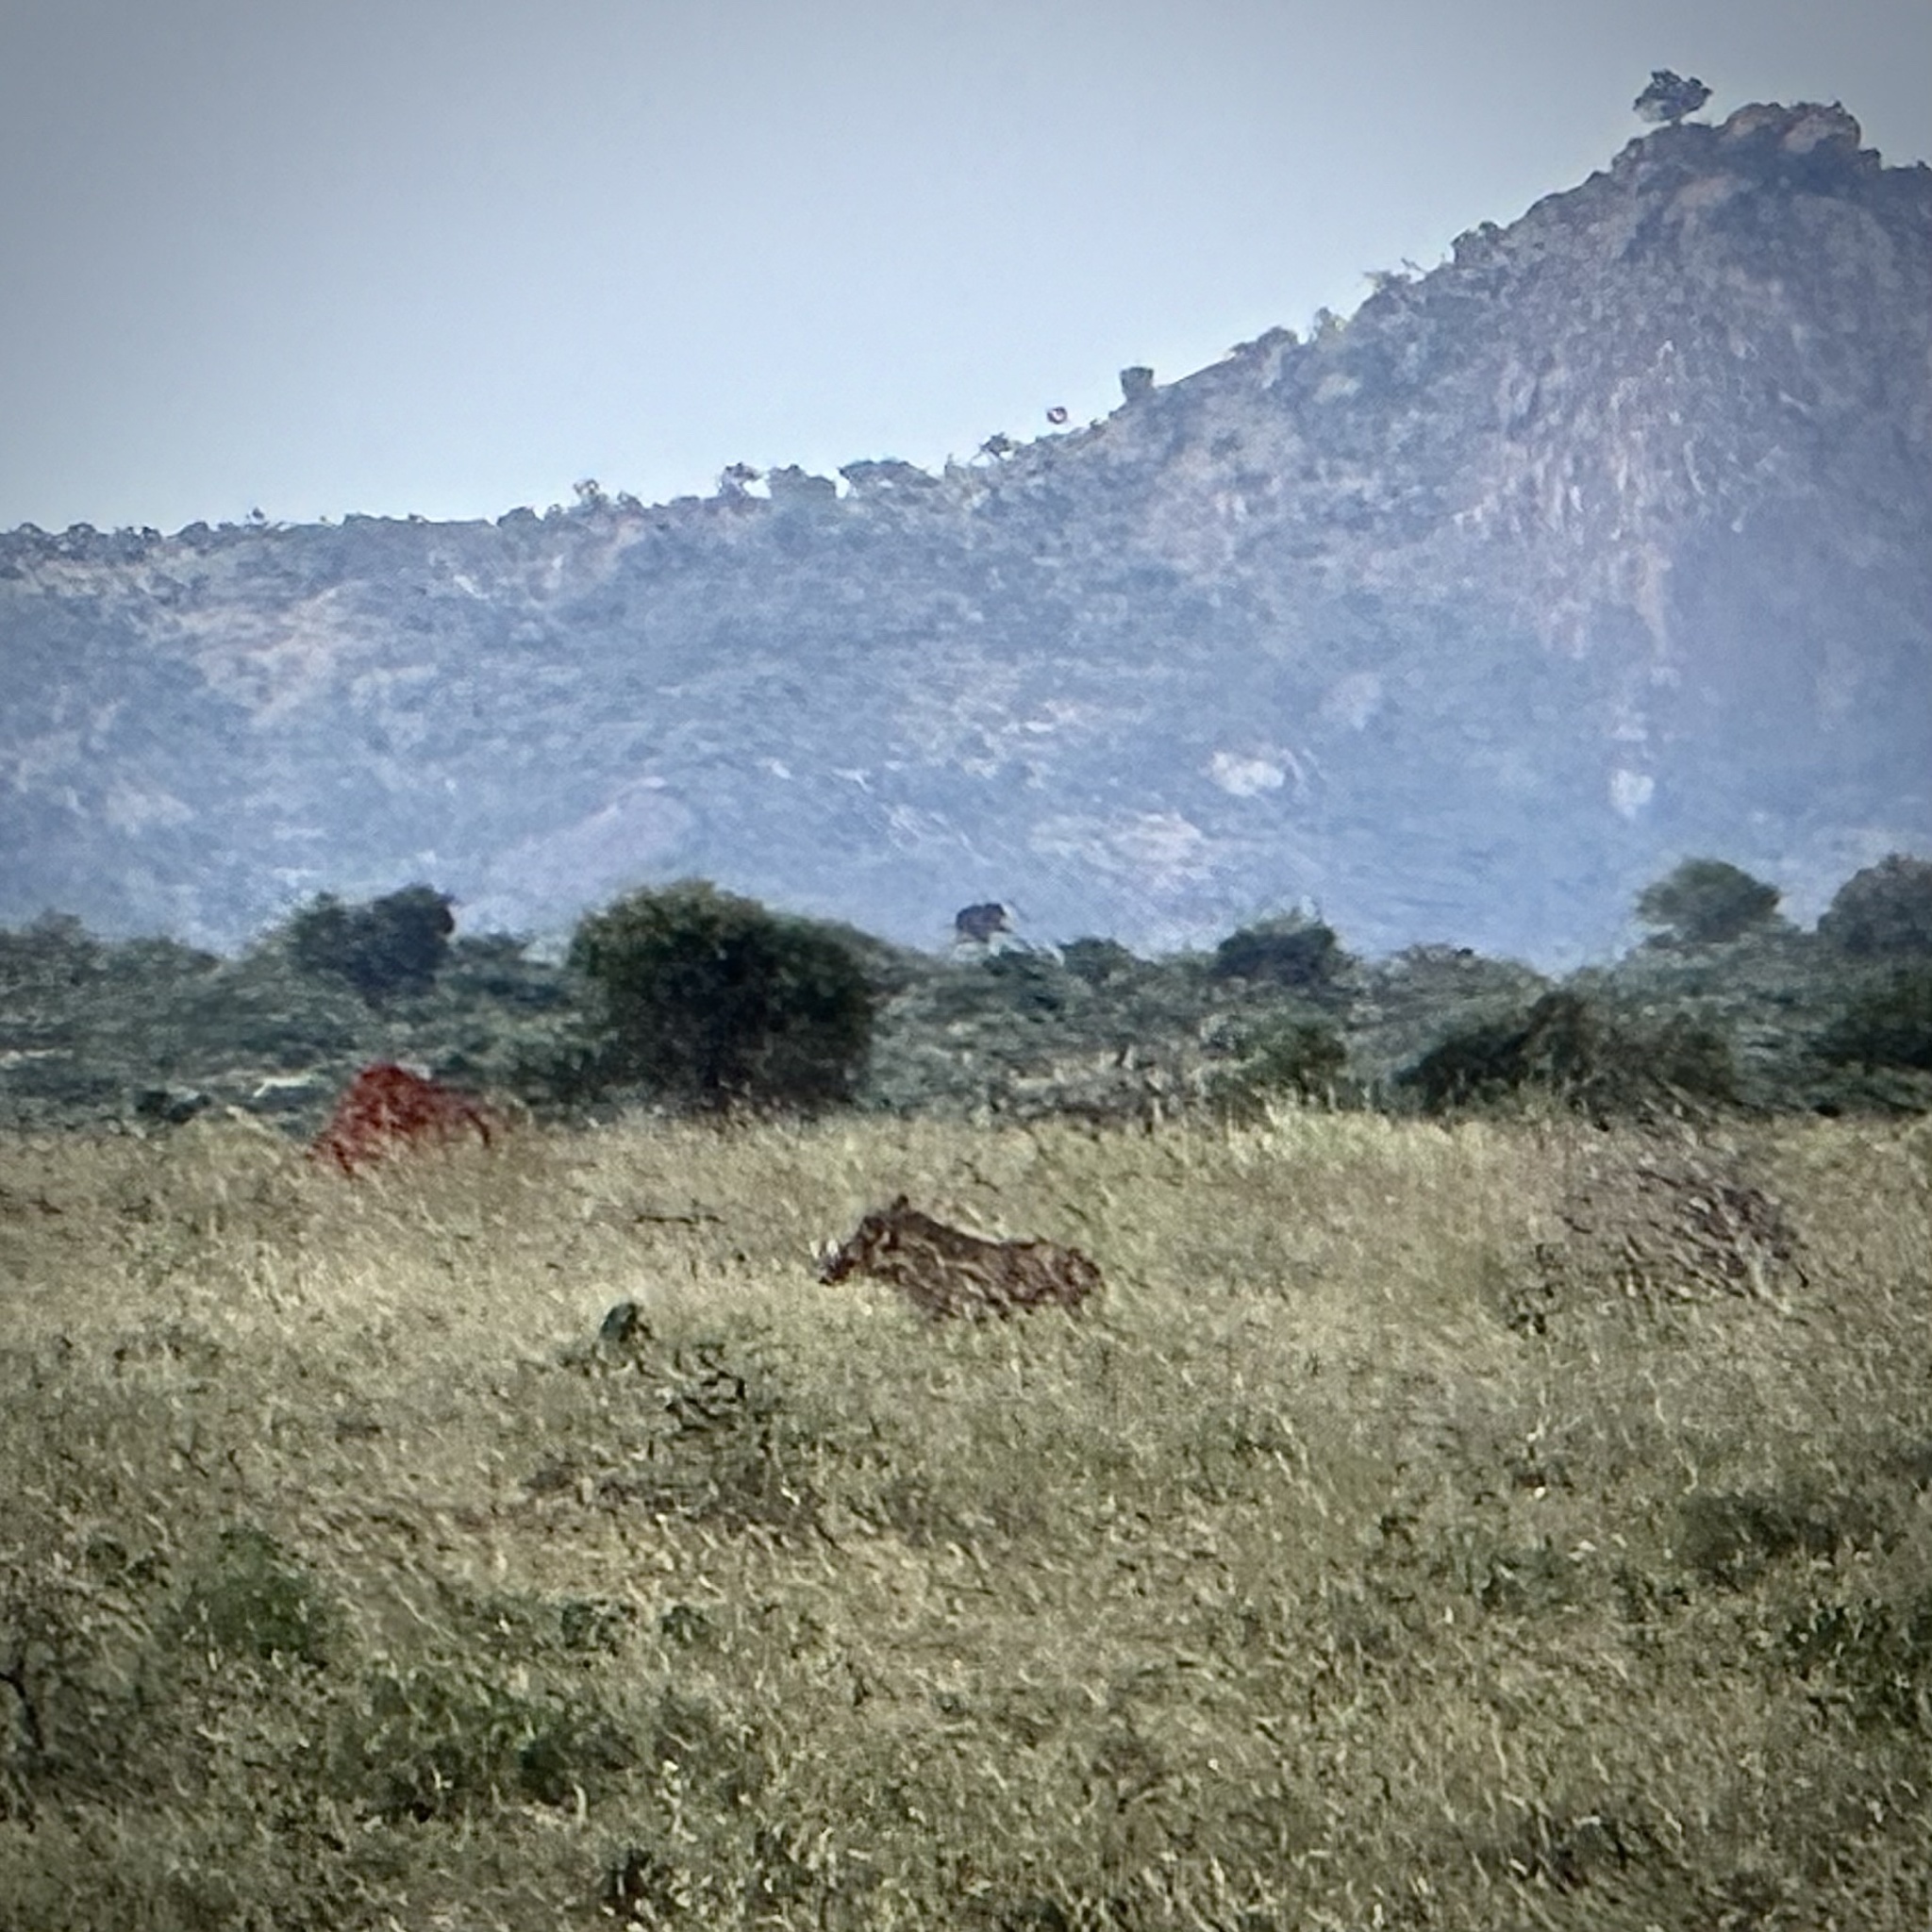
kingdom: Animalia
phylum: Chordata
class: Mammalia
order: Artiodactyla
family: Suidae
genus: Phacochoerus
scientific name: Phacochoerus africanus
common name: Common warthog
